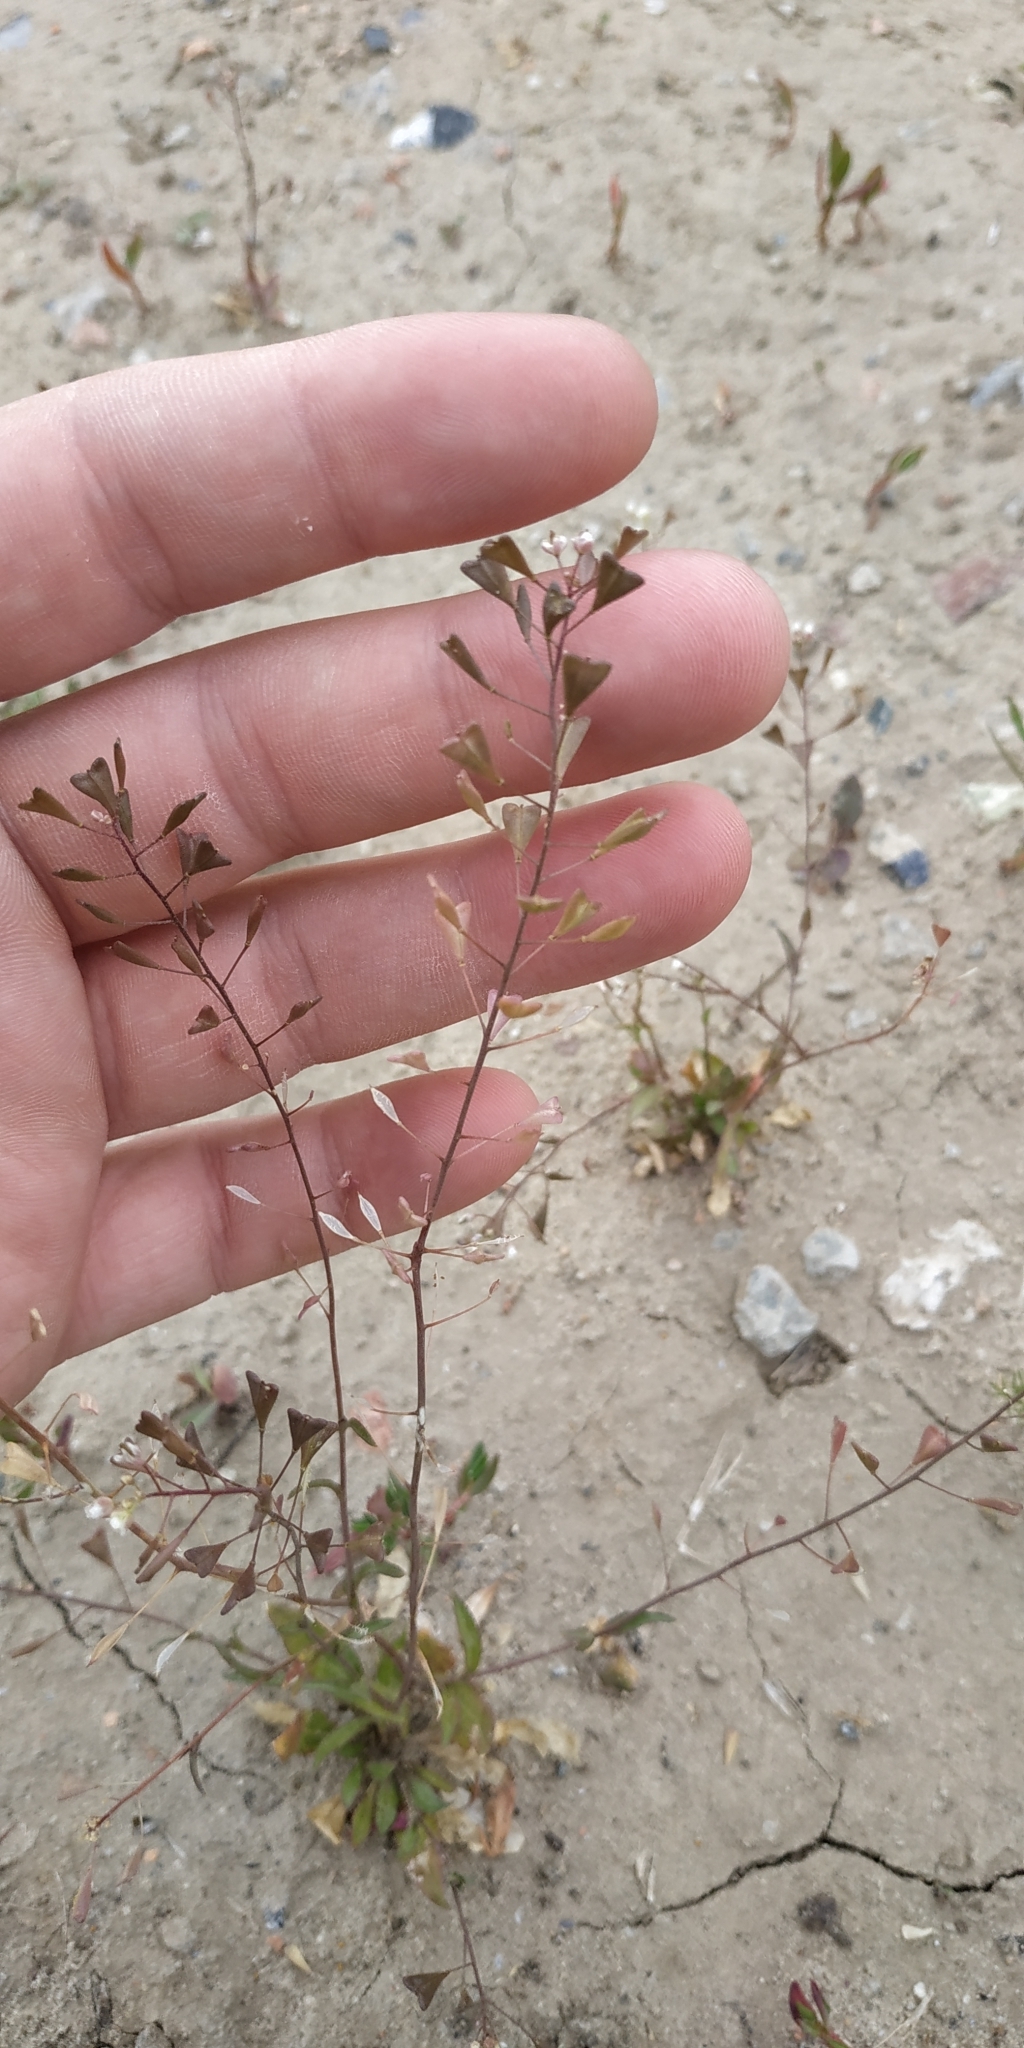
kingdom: Plantae
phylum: Tracheophyta
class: Magnoliopsida
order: Brassicales
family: Brassicaceae
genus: Capsella
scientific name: Capsella bursa-pastoris
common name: Shepherd's purse
